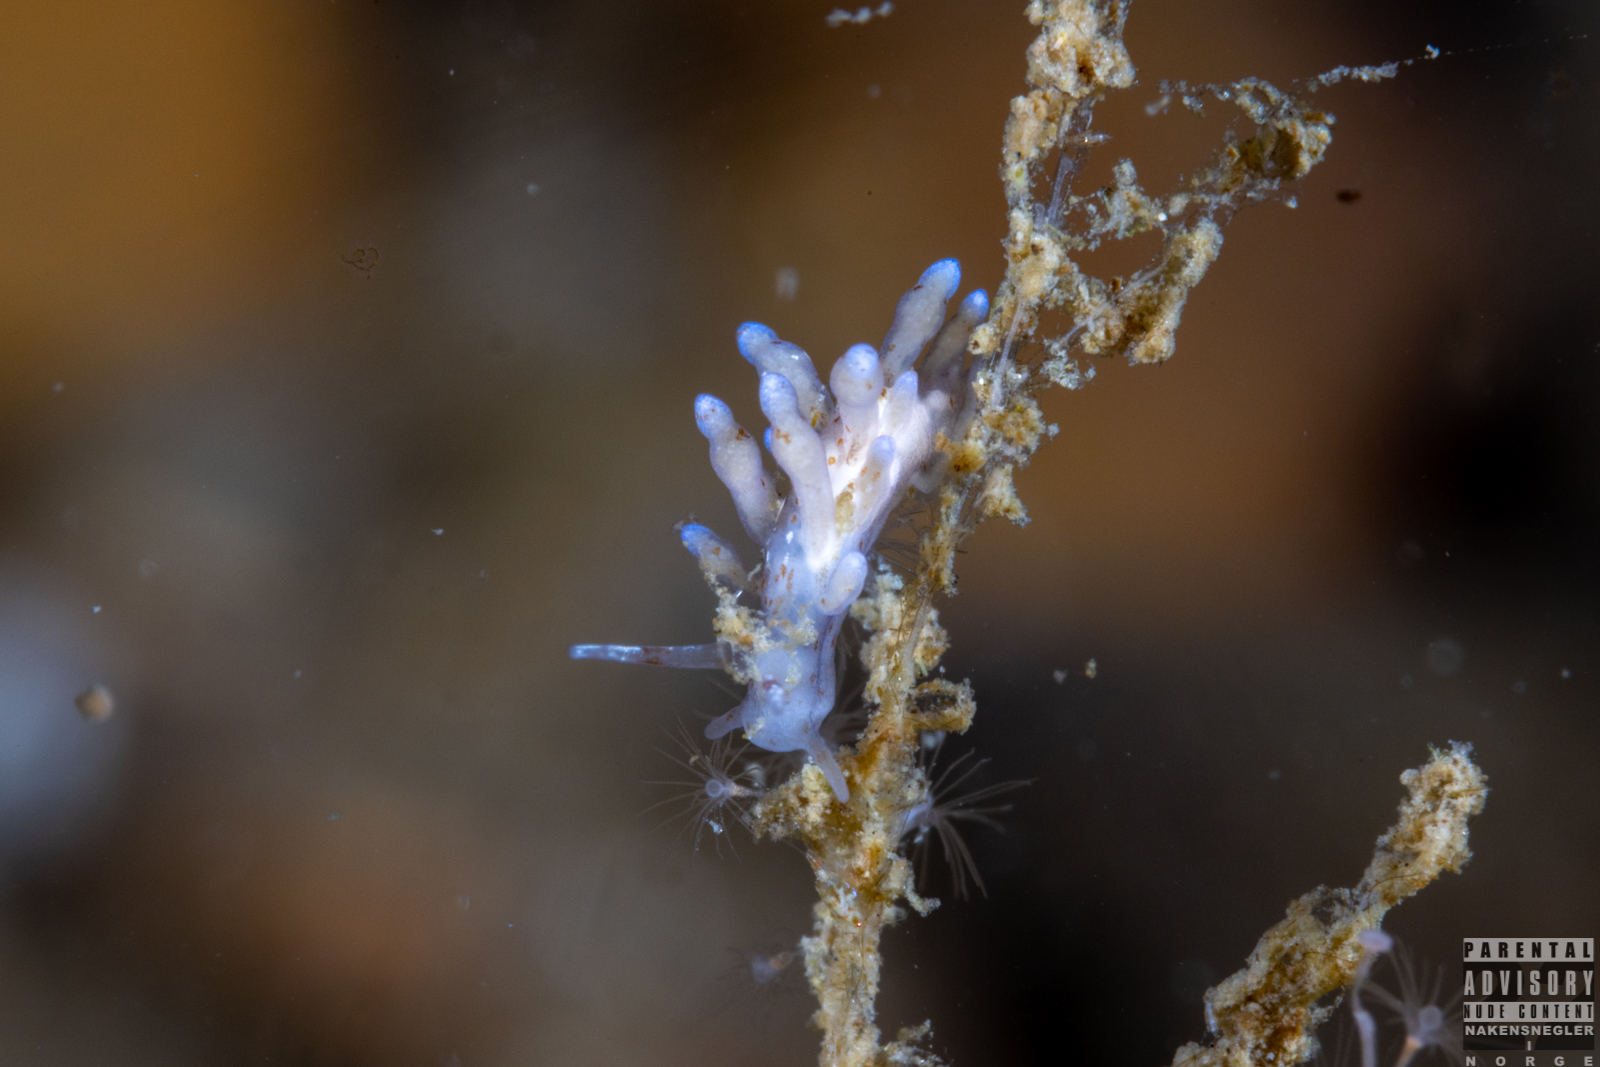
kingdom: Animalia
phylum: Mollusca
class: Gastropoda
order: Nudibranchia
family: Eubranchidae
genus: Eubranchus
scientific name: Eubranchus rupium
